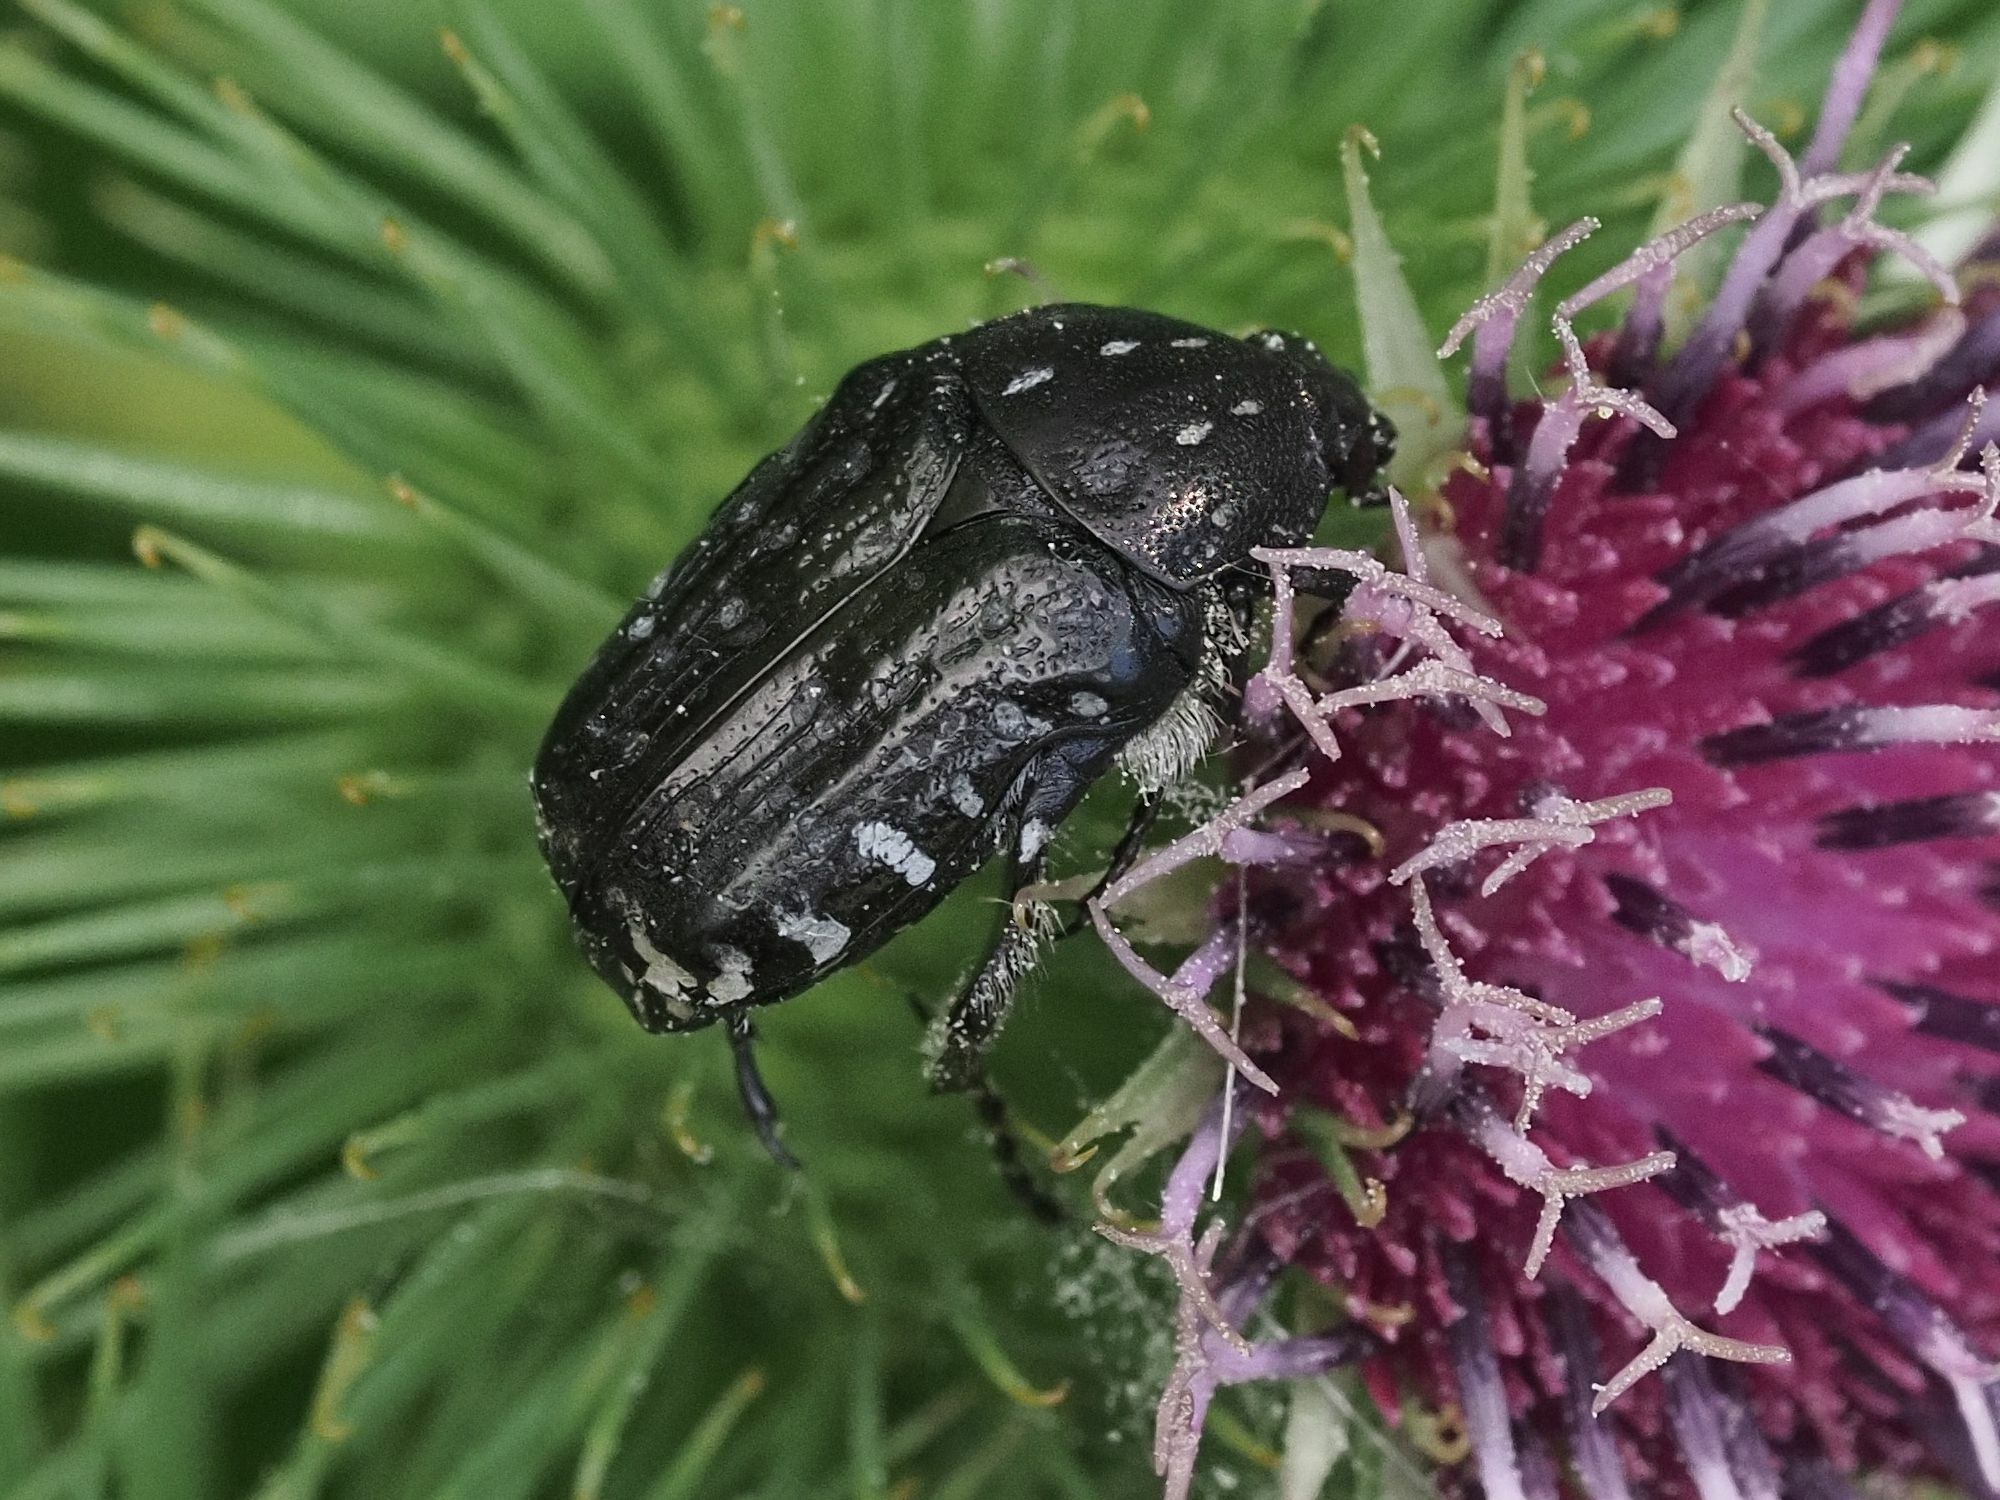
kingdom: Animalia
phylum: Arthropoda
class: Insecta
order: Coleoptera
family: Scarabaeidae
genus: Oxythyrea
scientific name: Oxythyrea funesta
